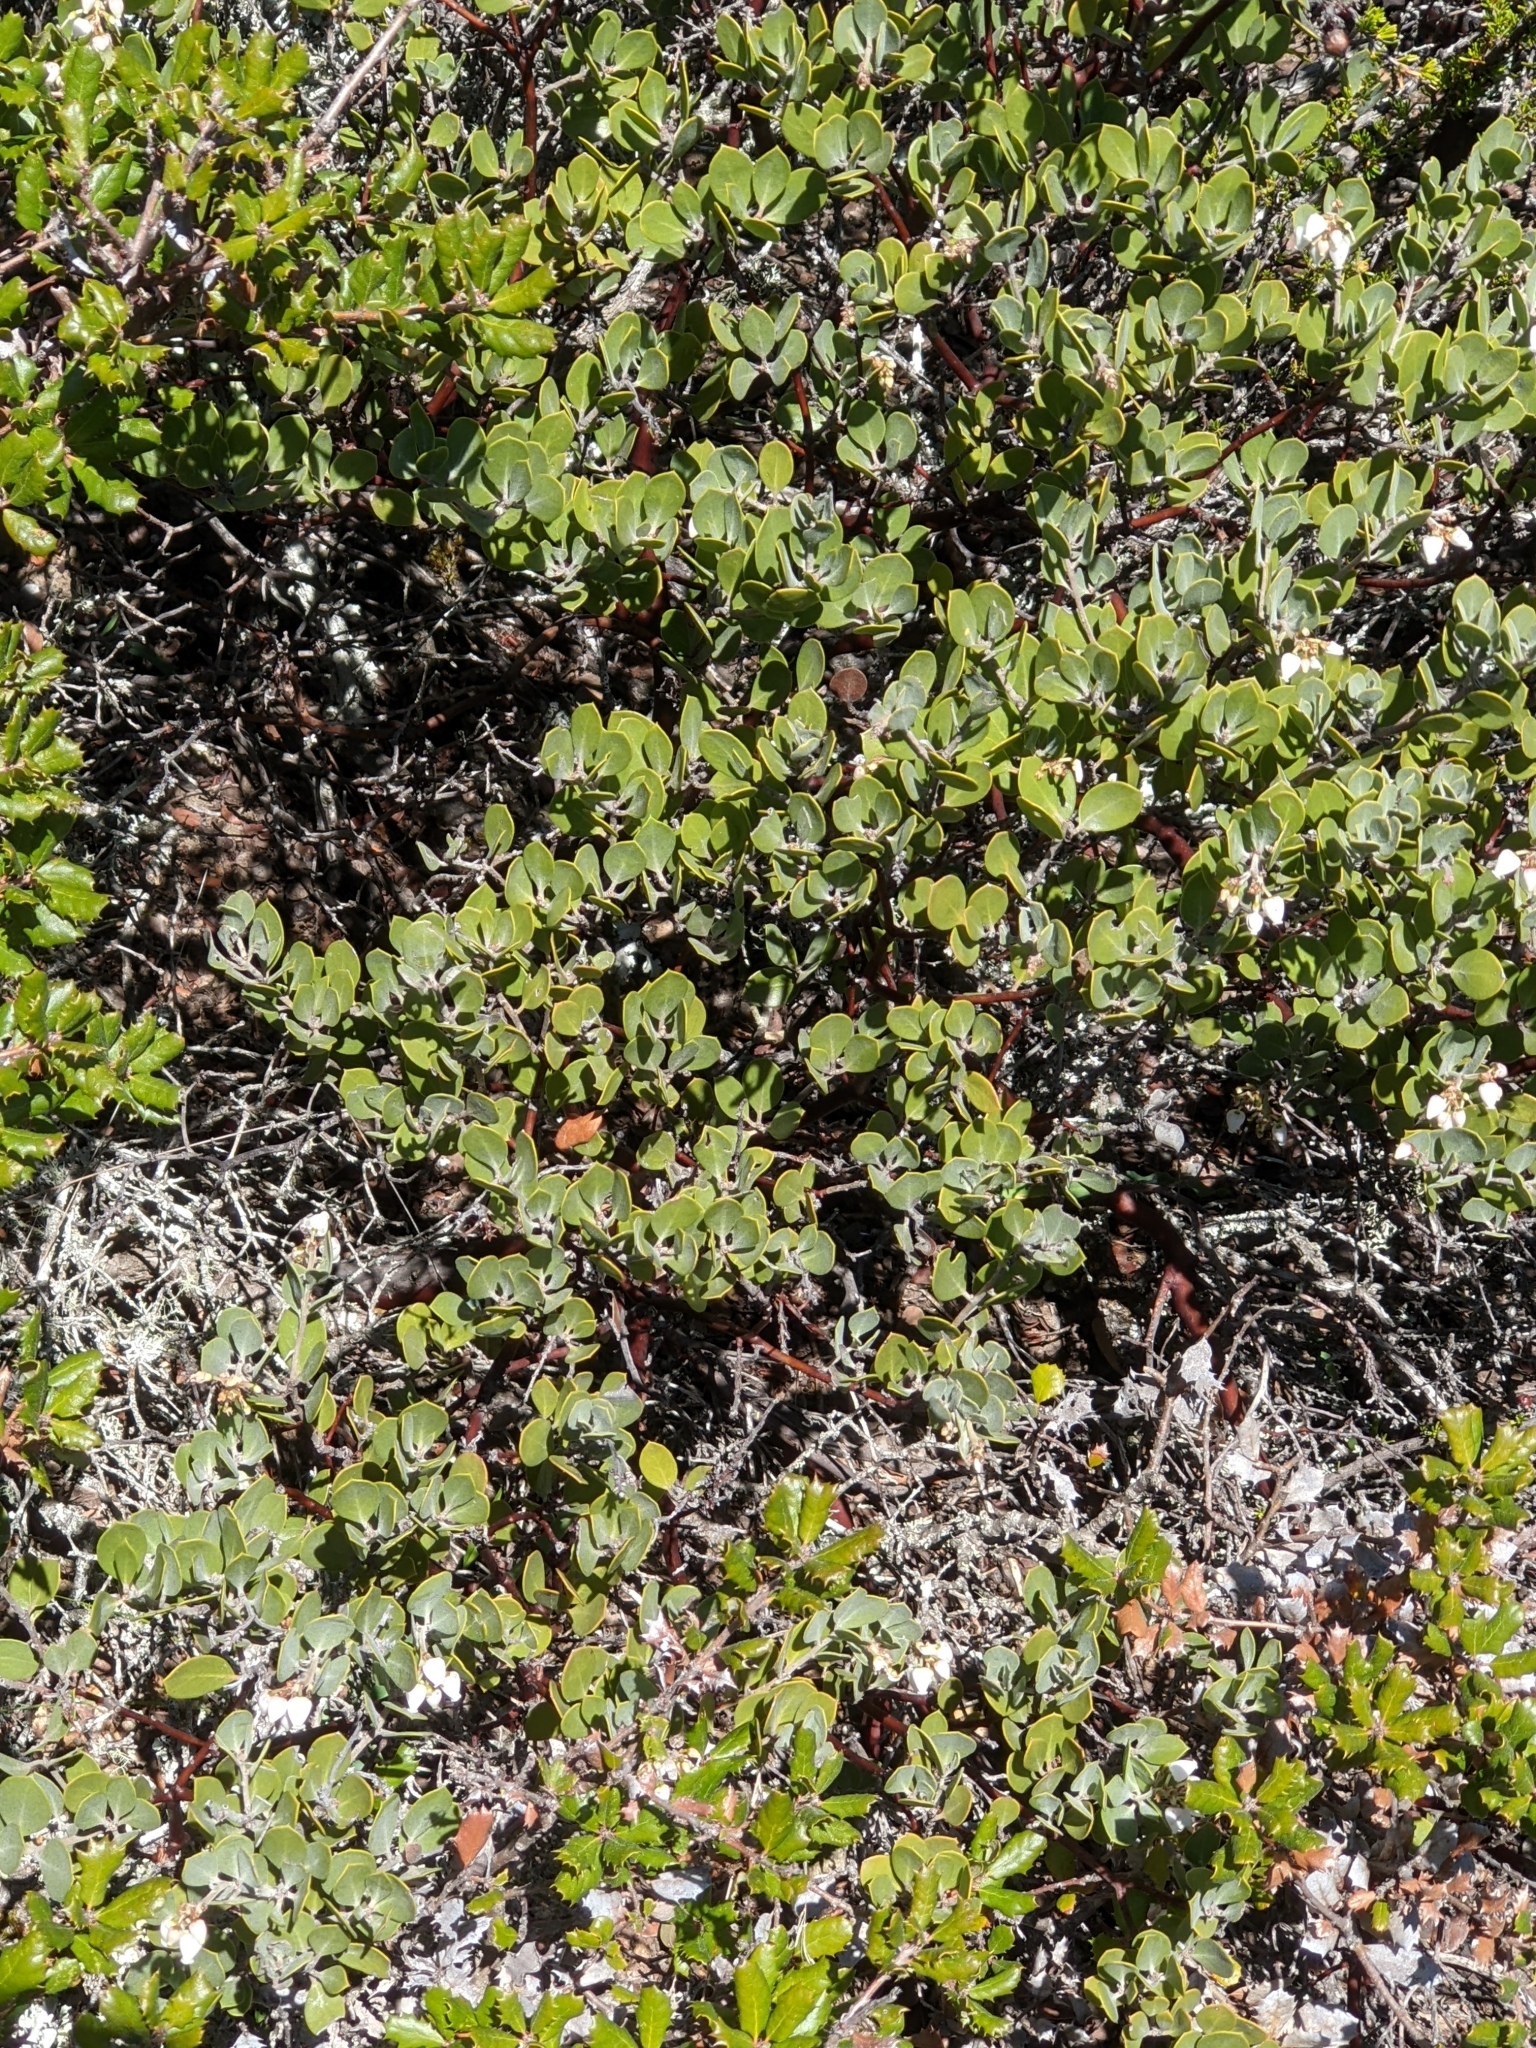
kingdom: Plantae
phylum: Tracheophyta
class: Magnoliopsida
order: Ericales
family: Ericaceae
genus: Arctostaphylos
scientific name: Arctostaphylos montana
